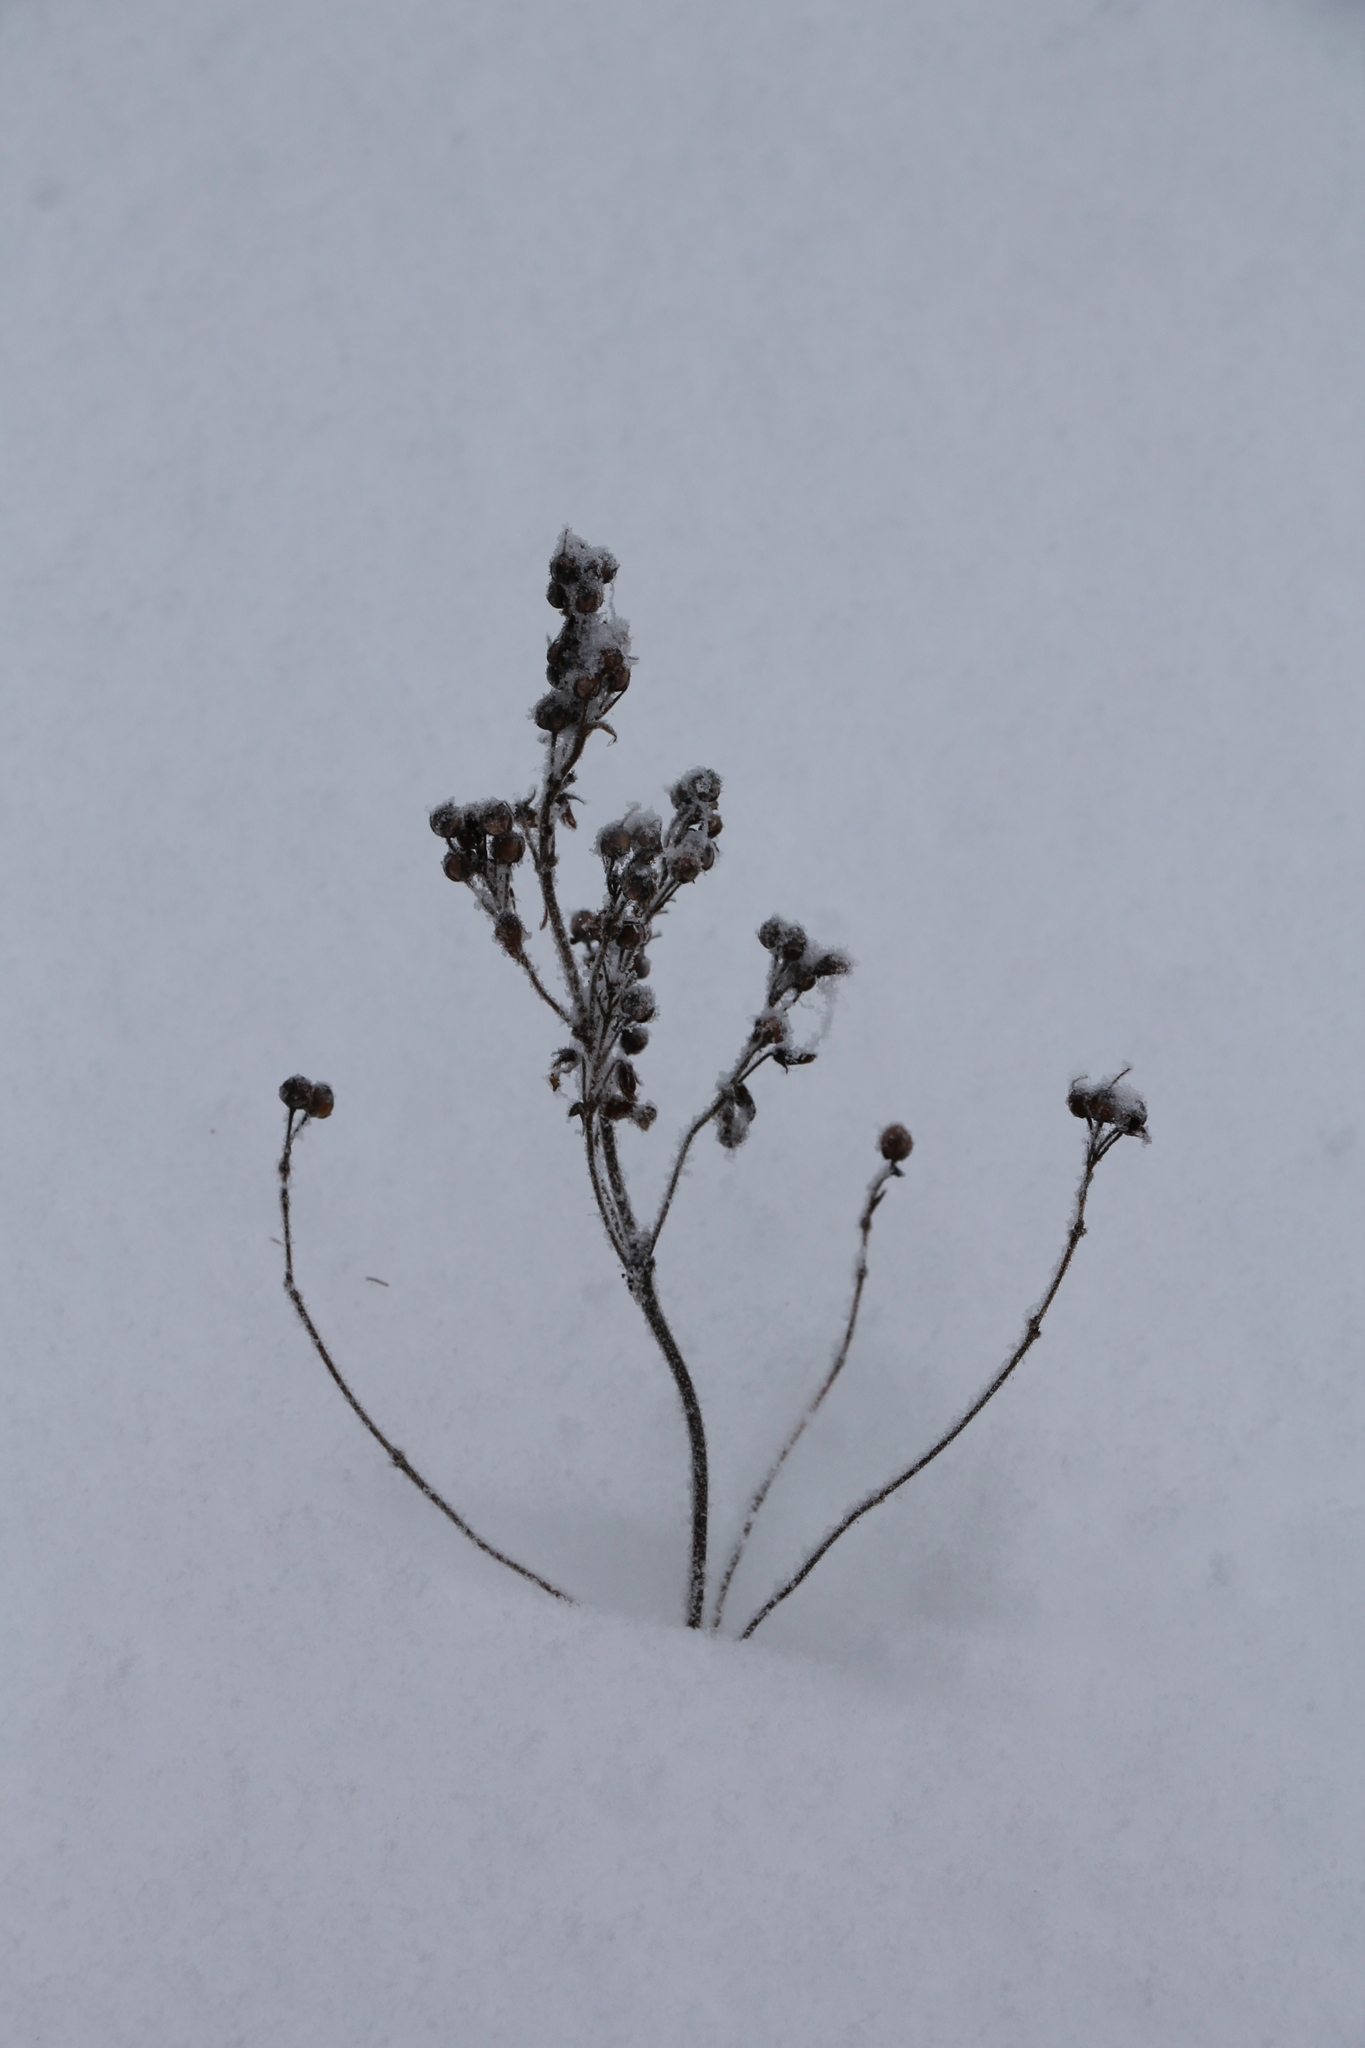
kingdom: Plantae
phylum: Tracheophyta
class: Magnoliopsida
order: Ericales
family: Primulaceae
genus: Lysimachia
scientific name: Lysimachia vulgaris
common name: Yellow loosestrife
